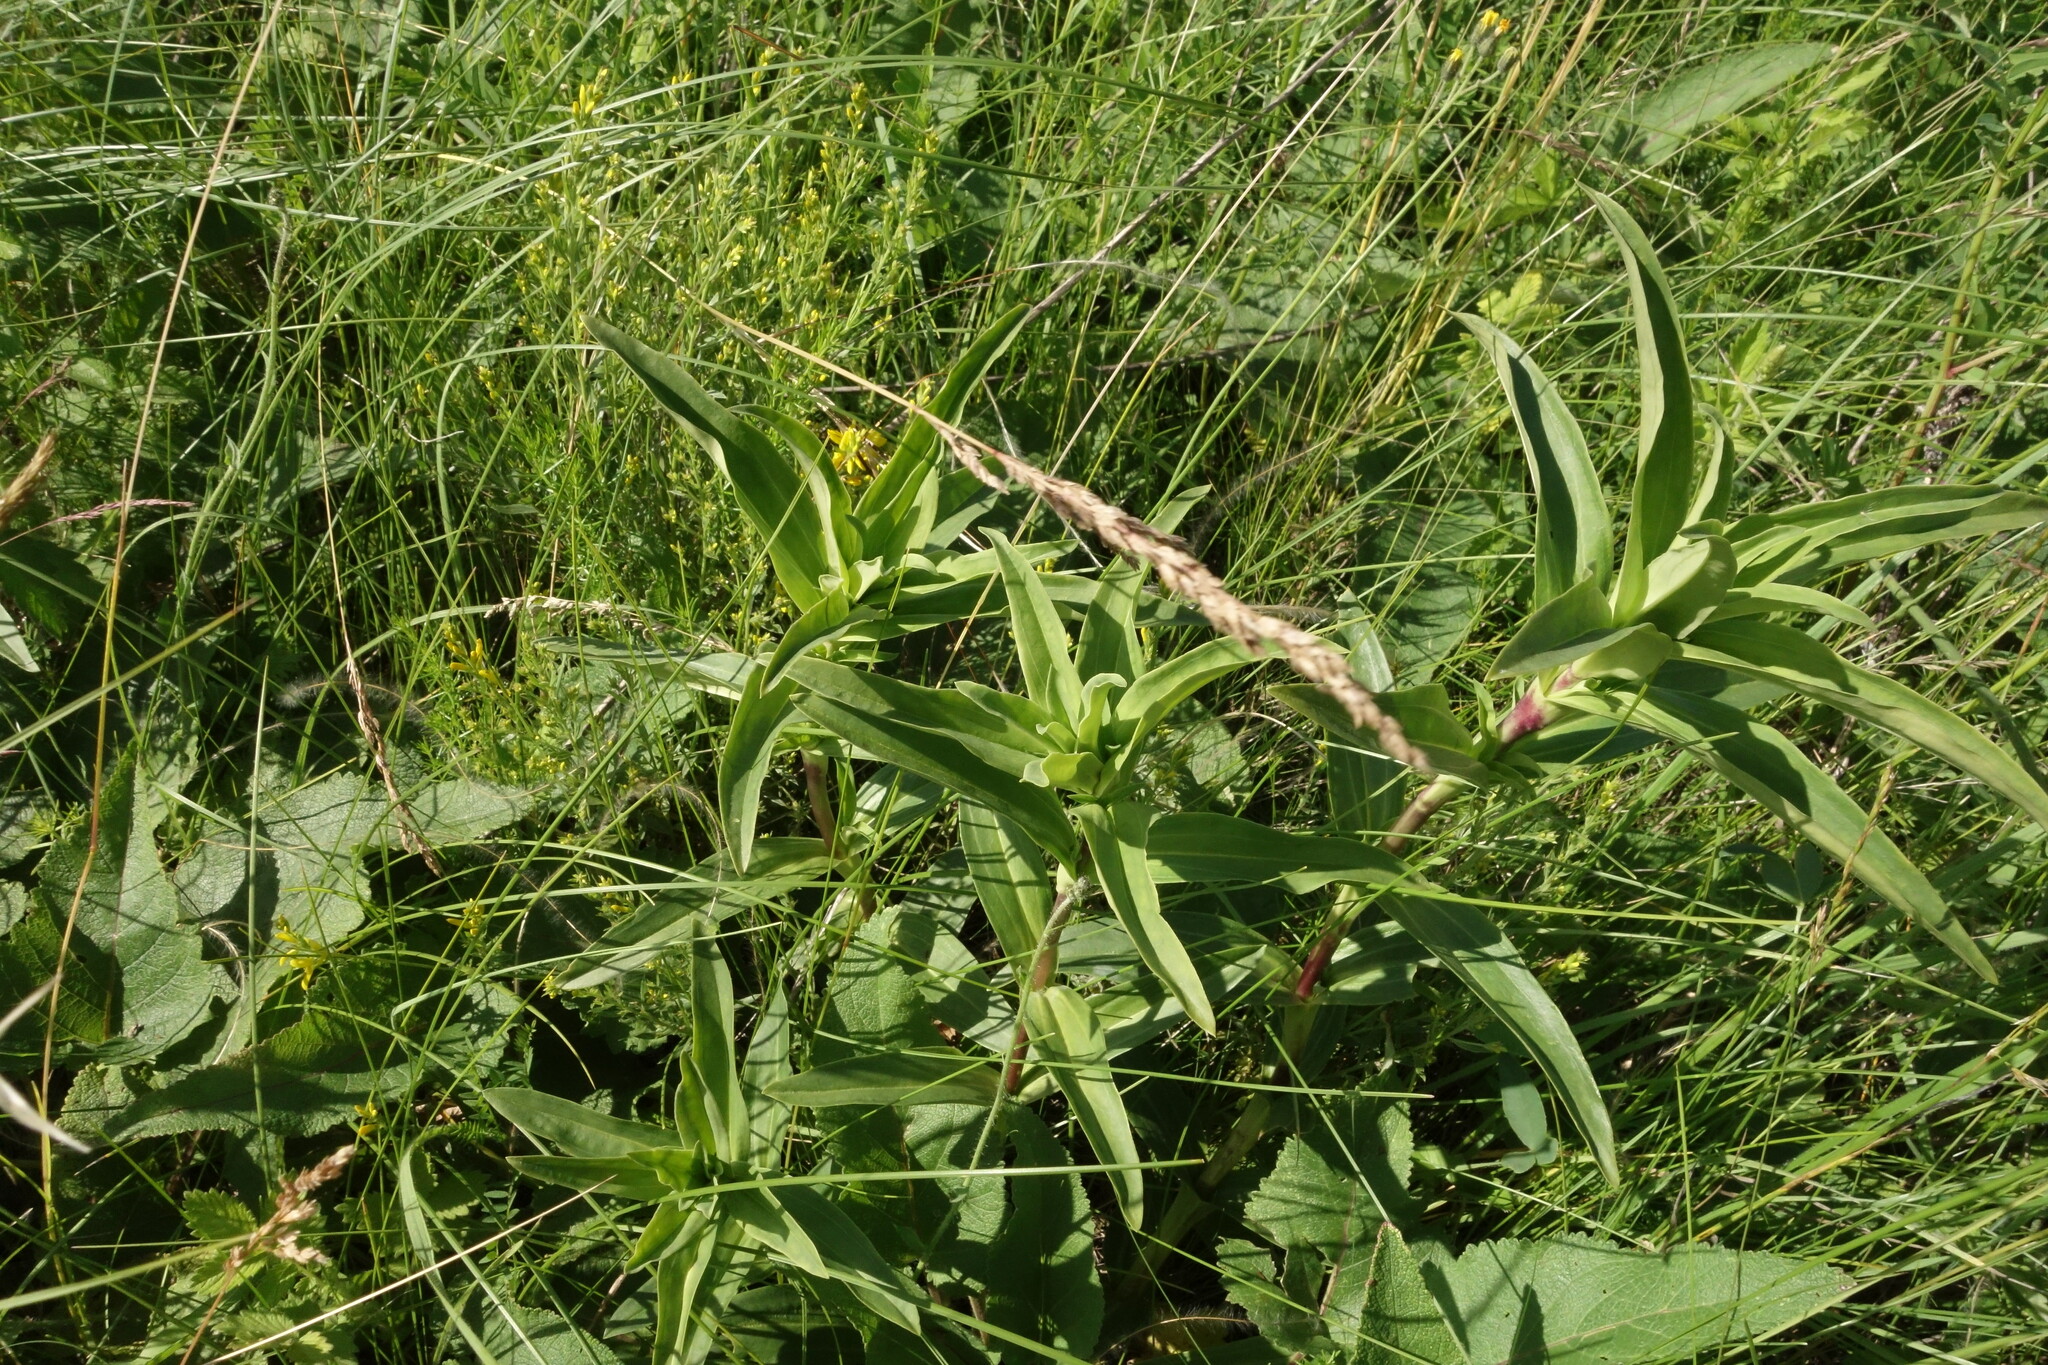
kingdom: Plantae
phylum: Tracheophyta
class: Magnoliopsida
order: Gentianales
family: Gentianaceae
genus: Gentiana
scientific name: Gentiana cruciata
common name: Cross gentian
